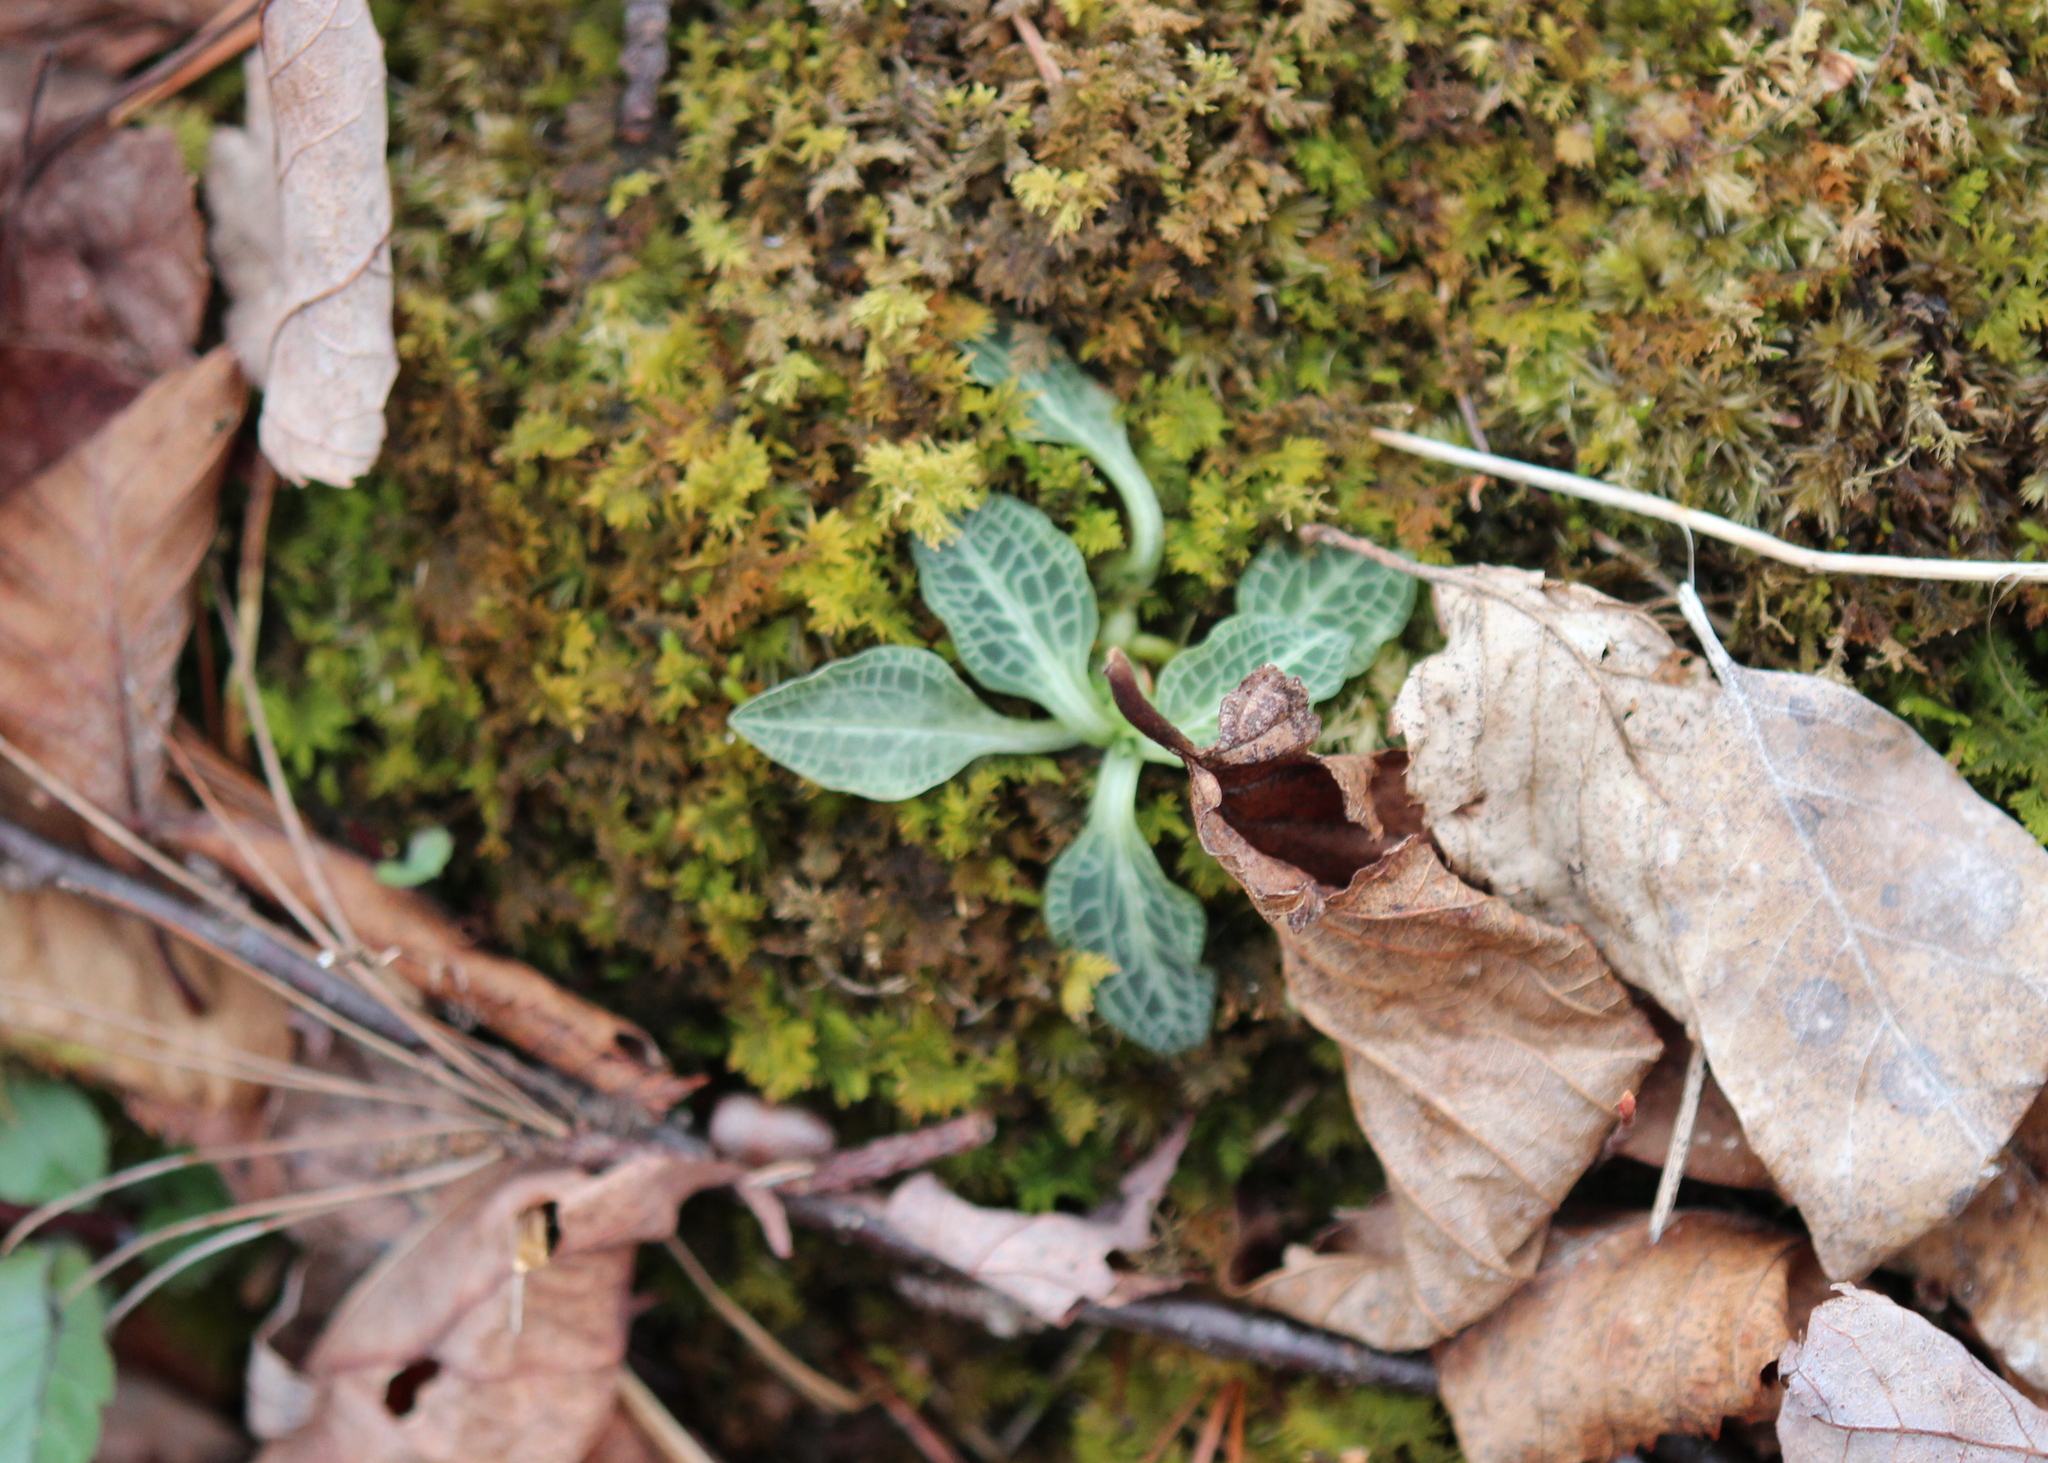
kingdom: Plantae
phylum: Tracheophyta
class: Liliopsida
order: Asparagales
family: Orchidaceae
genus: Goodyera
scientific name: Goodyera pubescens
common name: Downy rattlesnake-plantain
